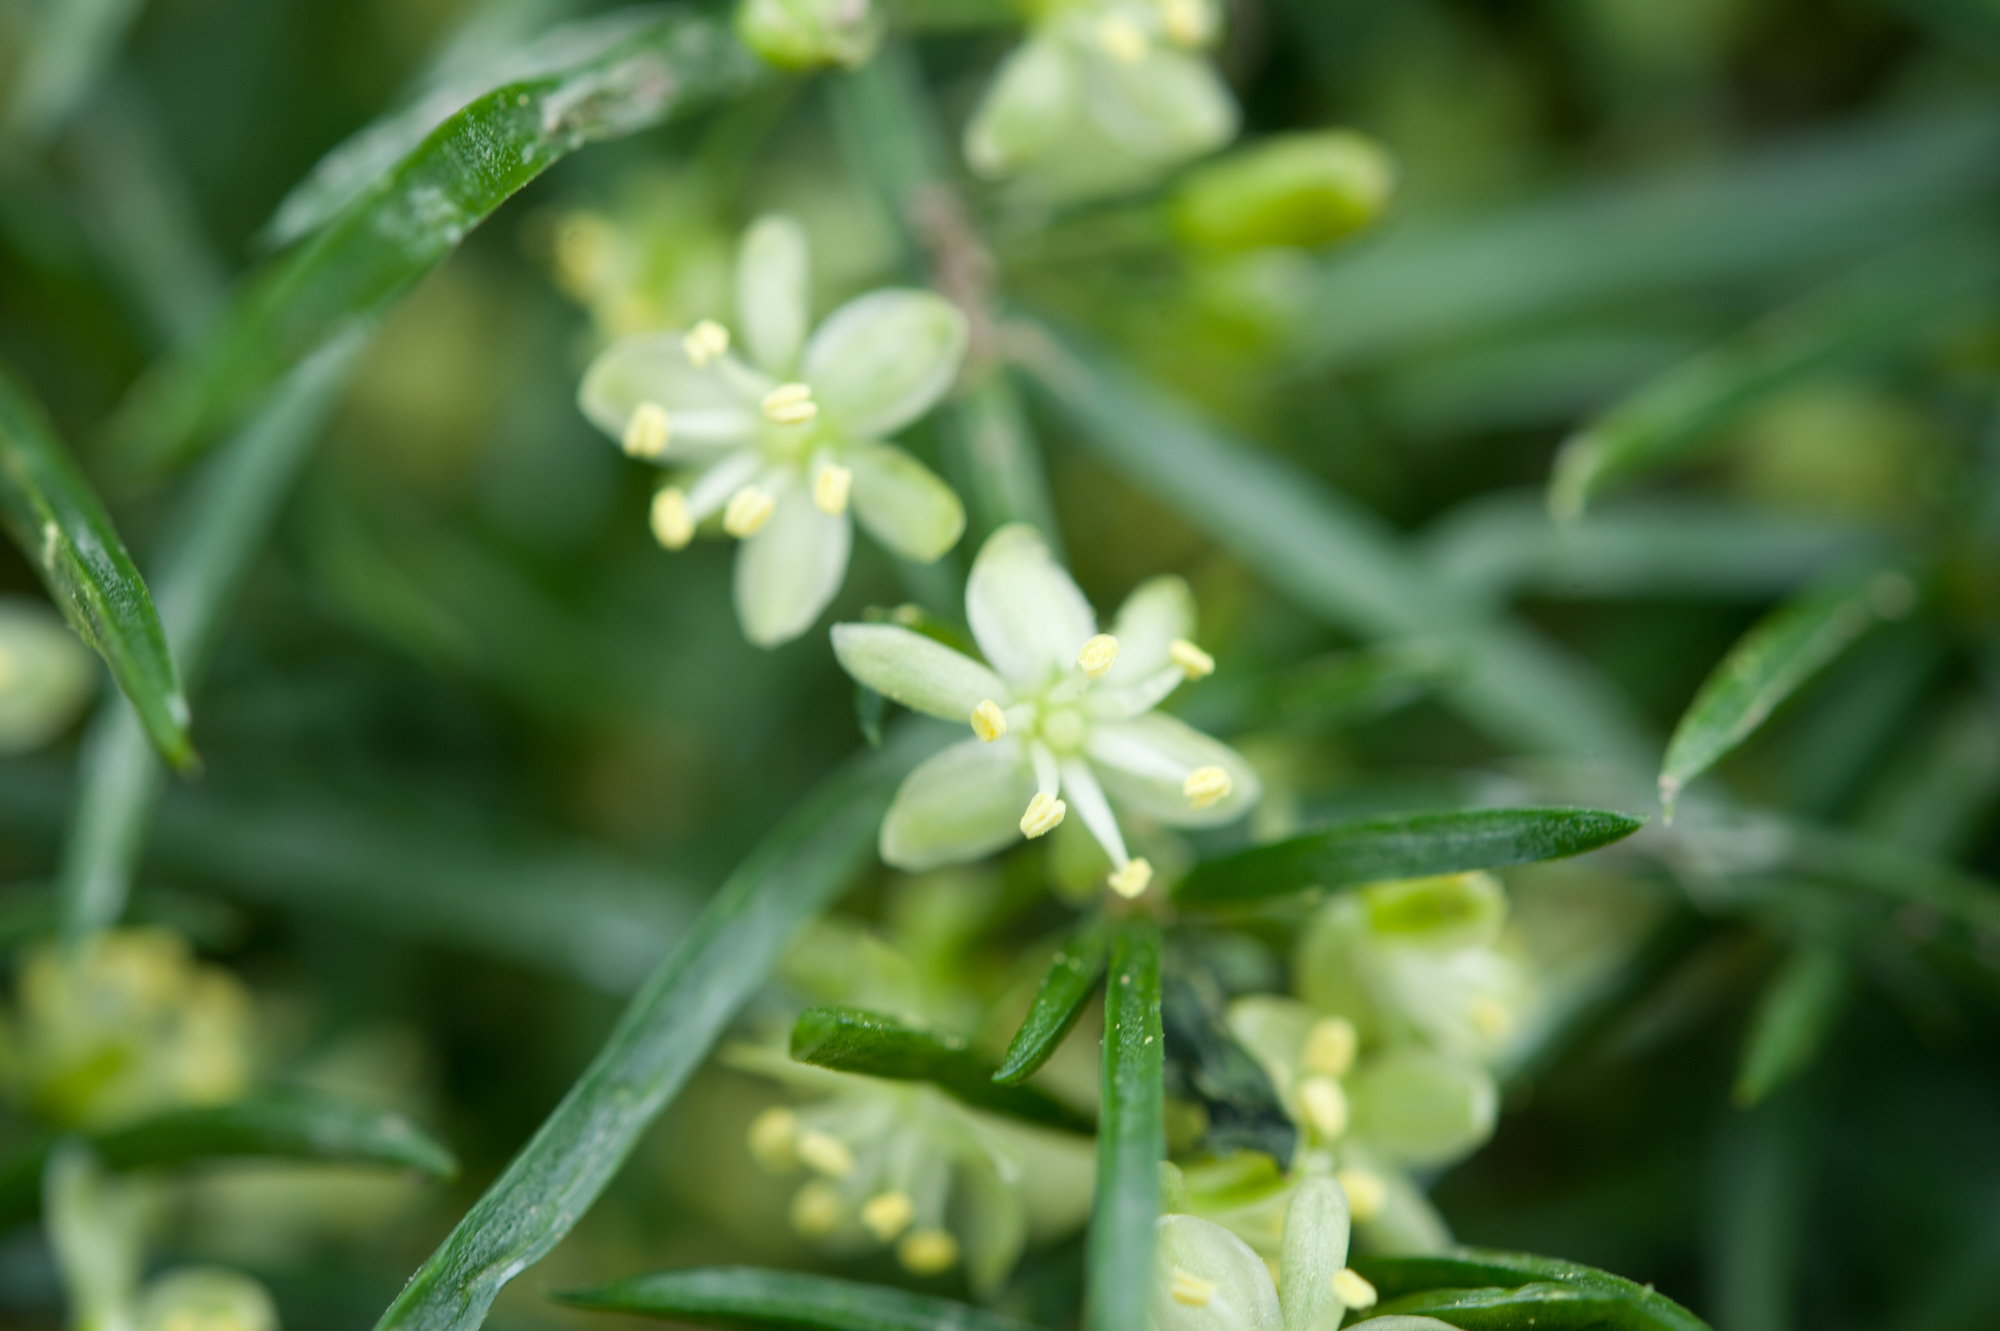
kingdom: Plantae
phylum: Tracheophyta
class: Liliopsida
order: Asparagales
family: Asparagaceae
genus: Asparagus
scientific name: Asparagus cochinchinensis
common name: Chinese asparagus
